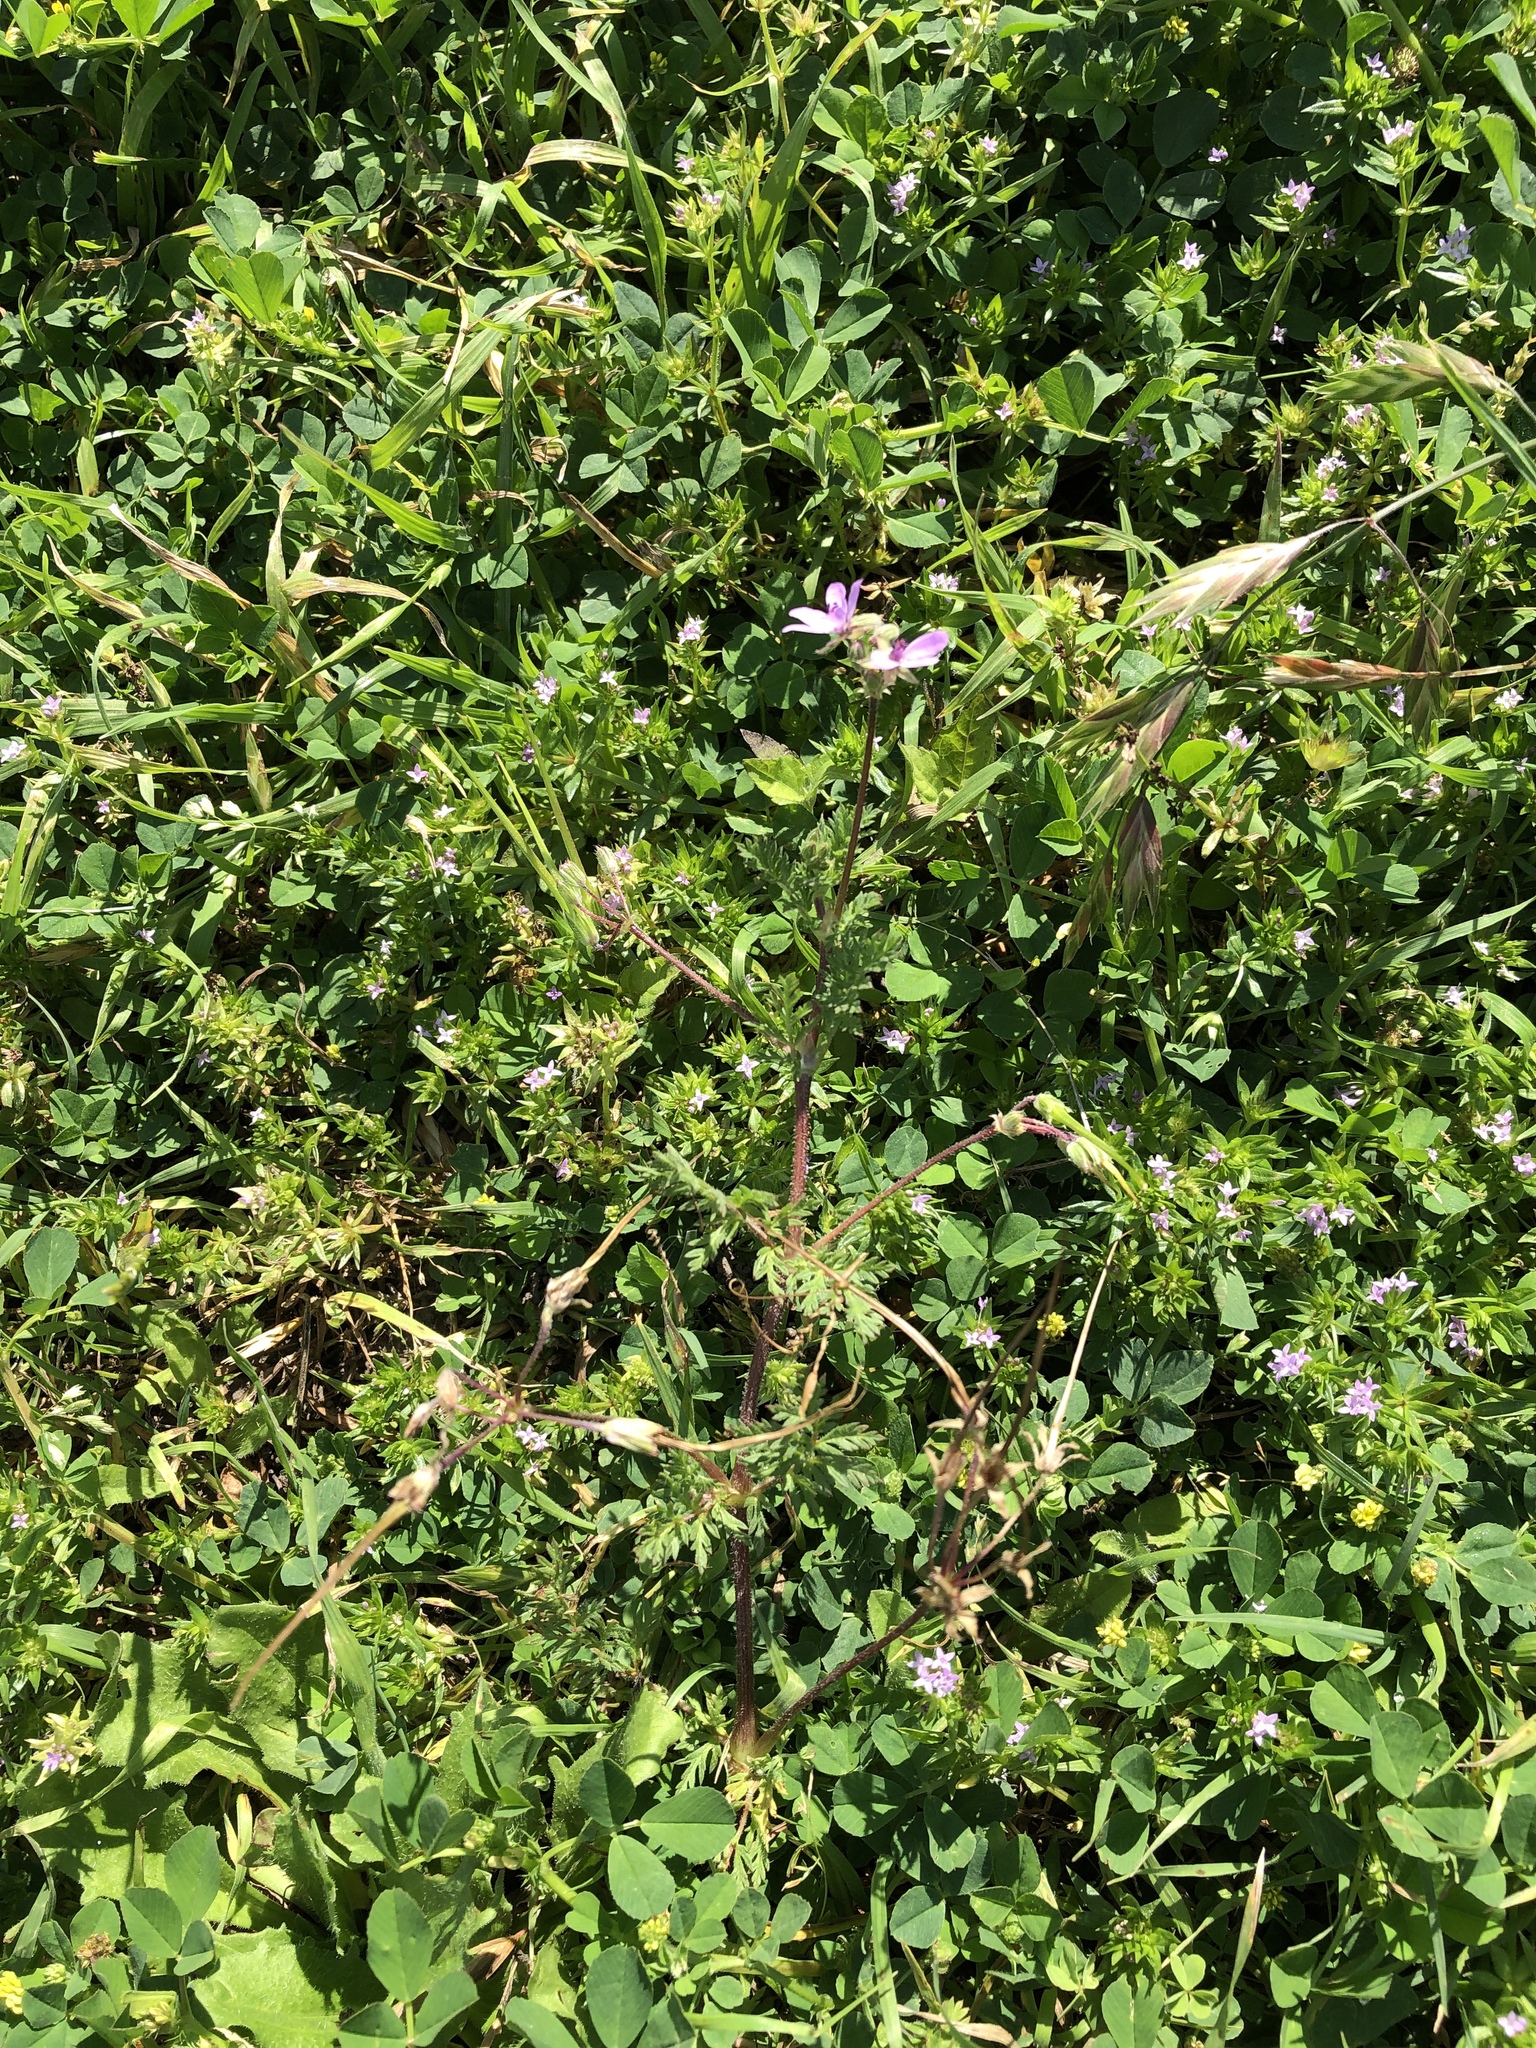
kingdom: Plantae
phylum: Tracheophyta
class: Magnoliopsida
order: Geraniales
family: Geraniaceae
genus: Erodium
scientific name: Erodium cicutarium
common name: Common stork's-bill
